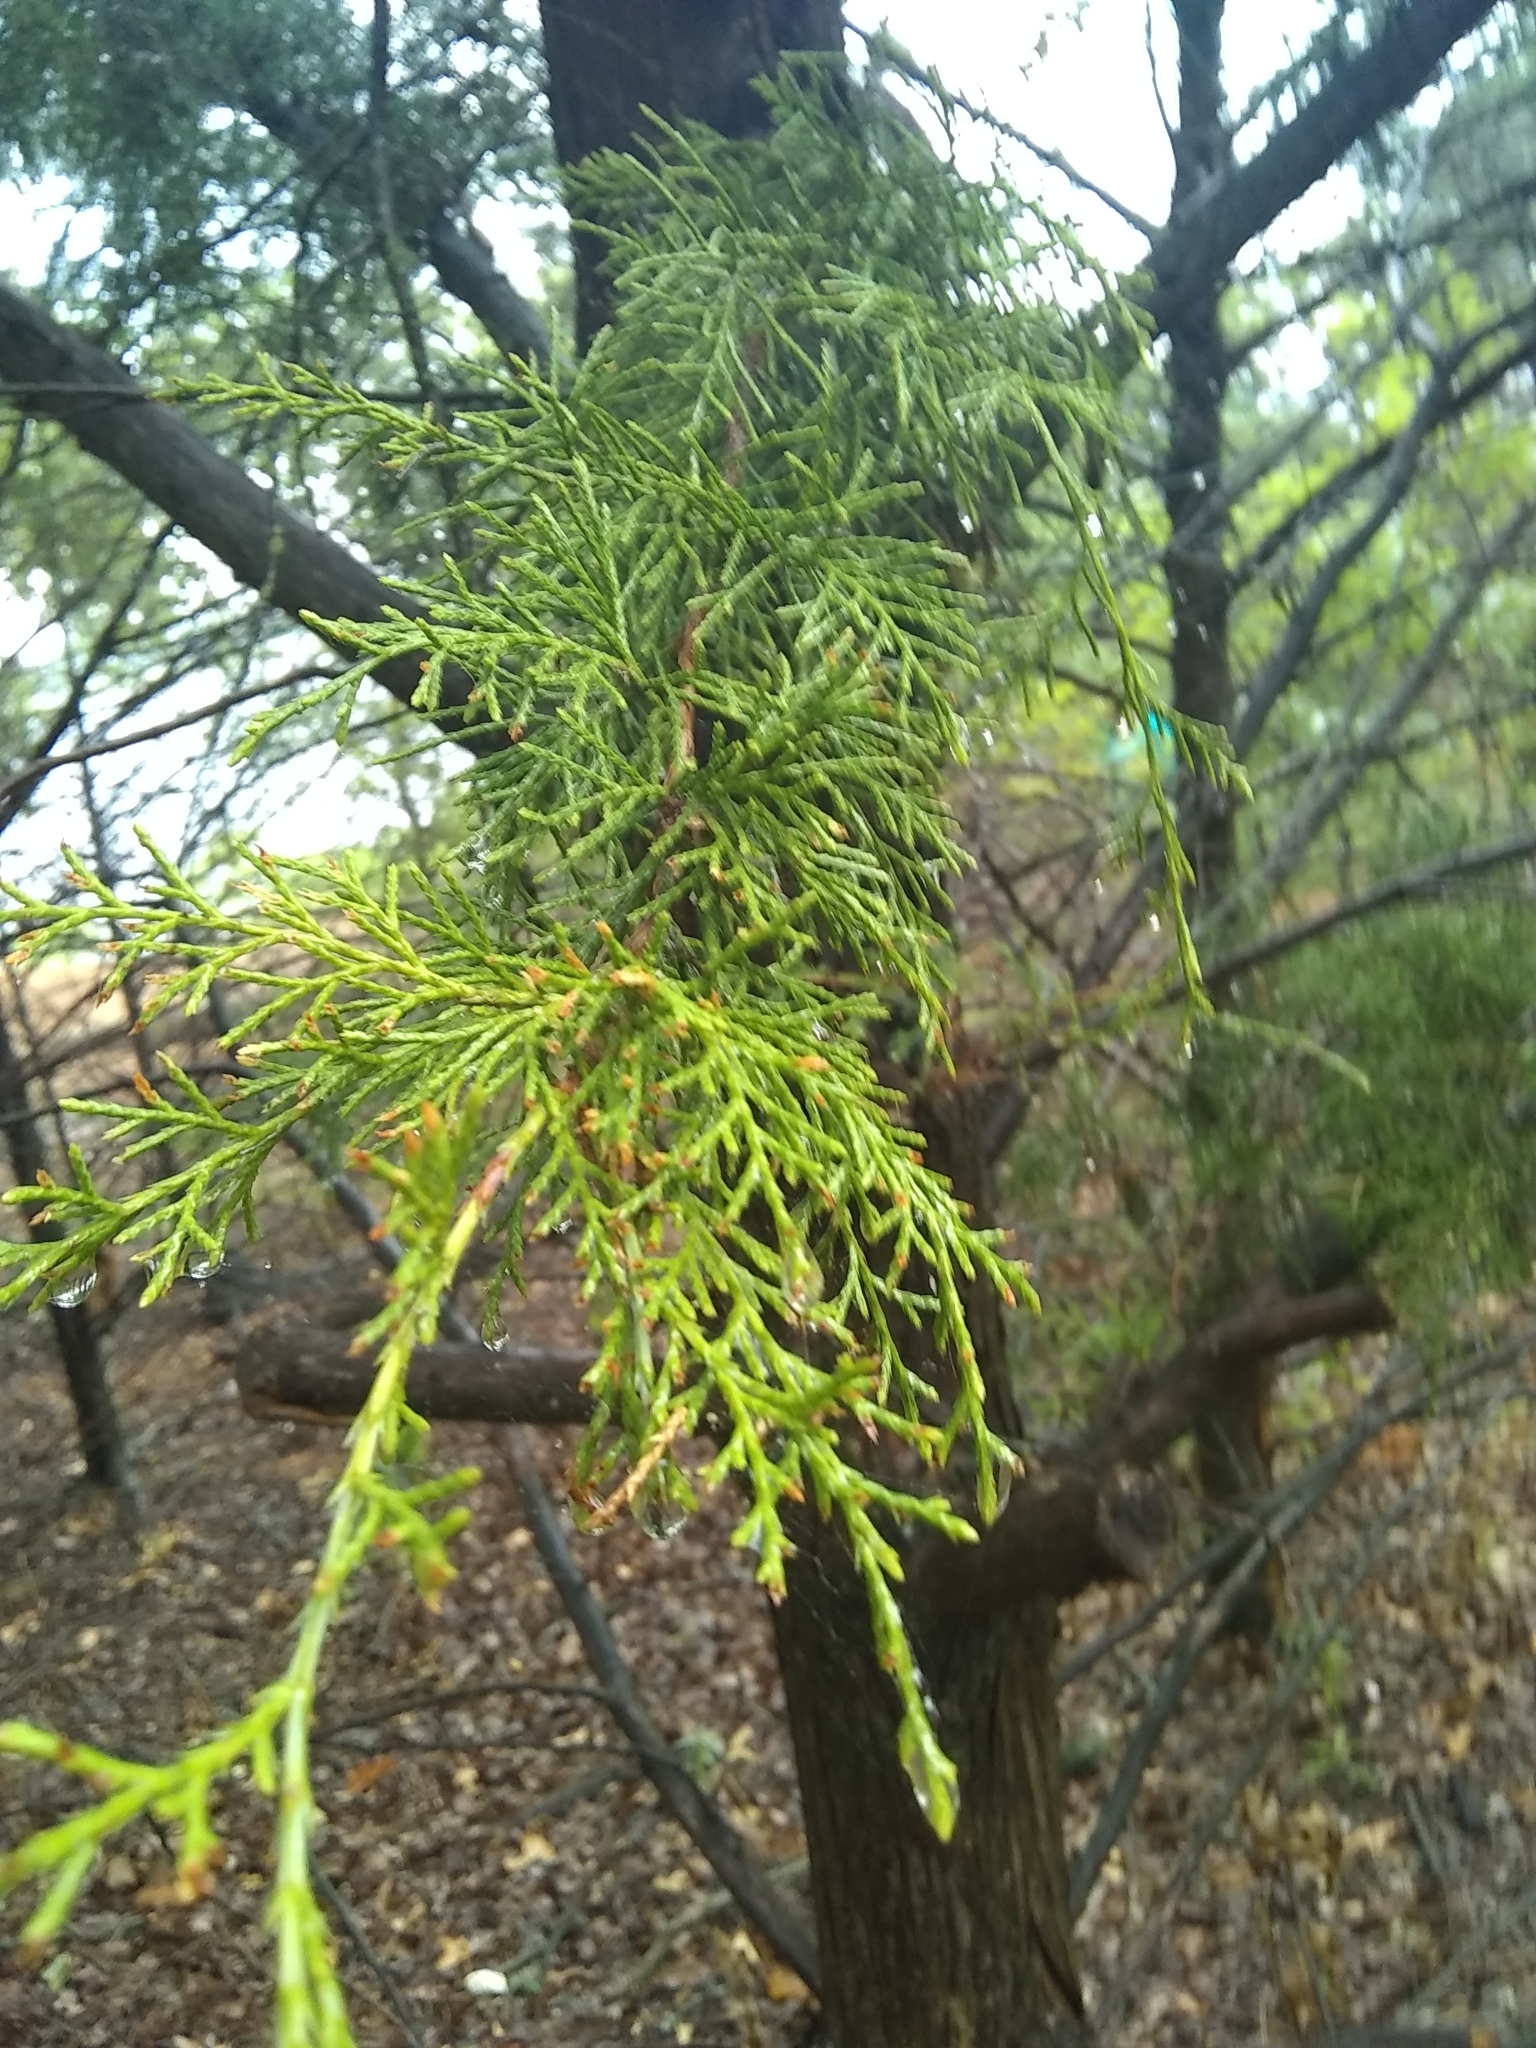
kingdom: Plantae
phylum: Tracheophyta
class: Pinopsida
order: Pinales
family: Cupressaceae
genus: Juniperus
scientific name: Juniperus virginiana
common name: Red juniper
